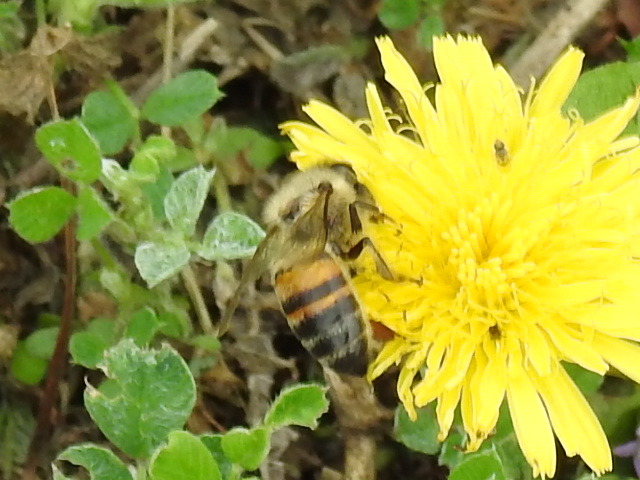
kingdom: Animalia
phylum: Arthropoda
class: Insecta
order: Hymenoptera
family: Apidae
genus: Apis
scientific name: Apis mellifera
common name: Honey bee
